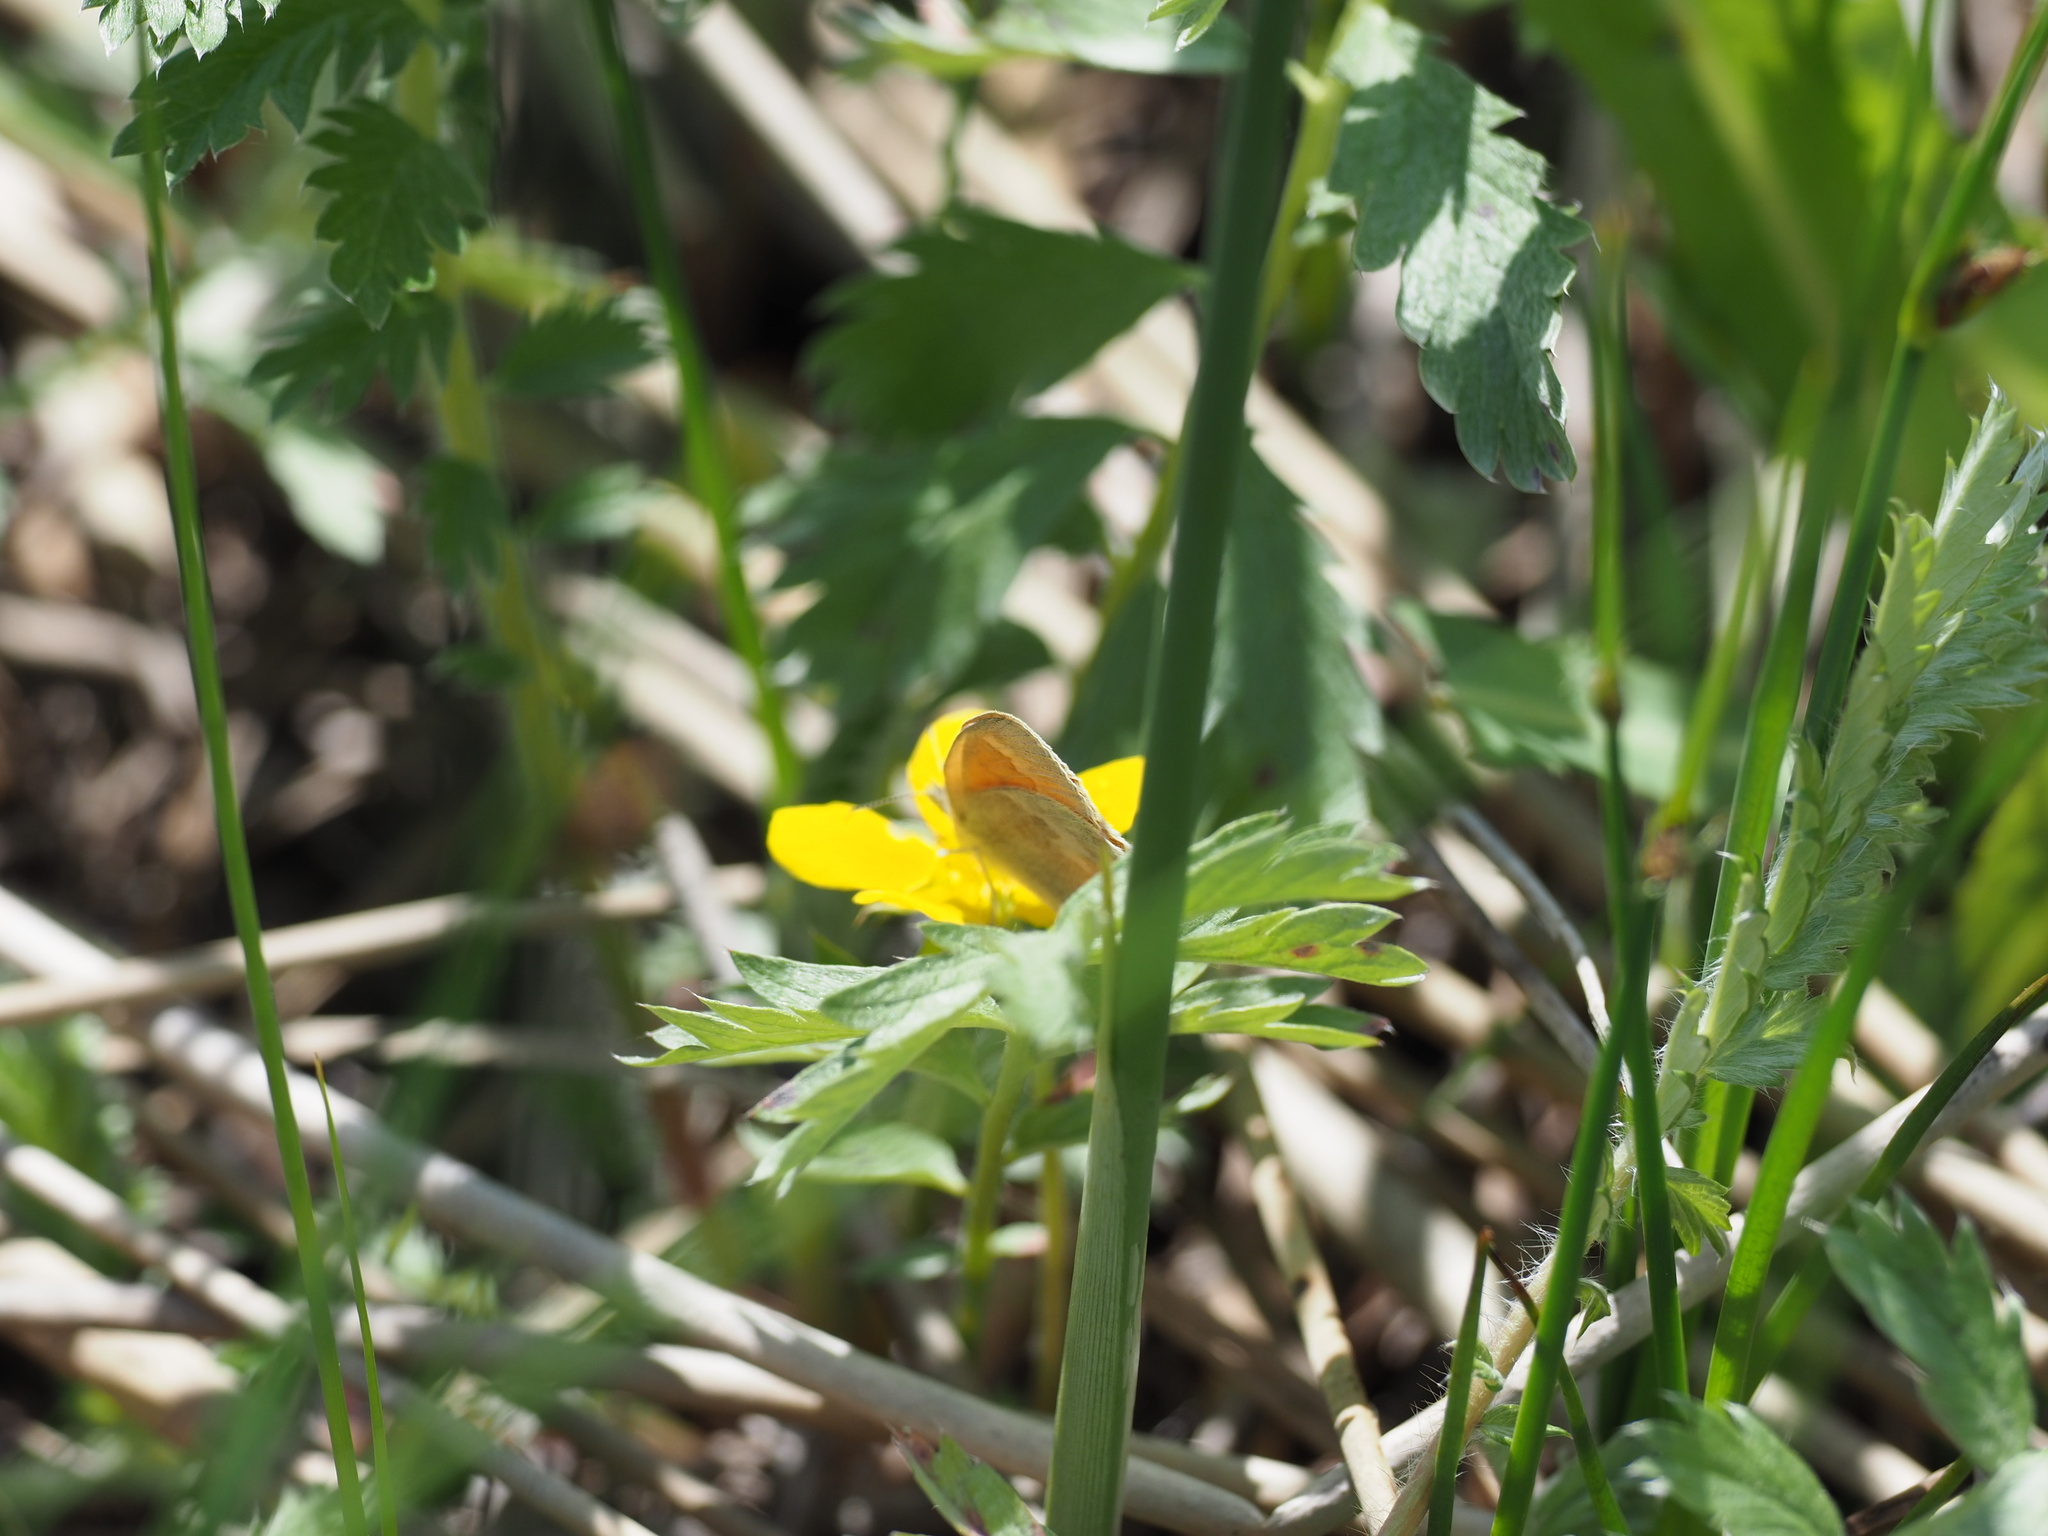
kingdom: Animalia
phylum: Arthropoda
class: Insecta
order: Lepidoptera
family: Nymphalidae
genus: Coenonympha
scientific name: Coenonympha california
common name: Common ringlet
